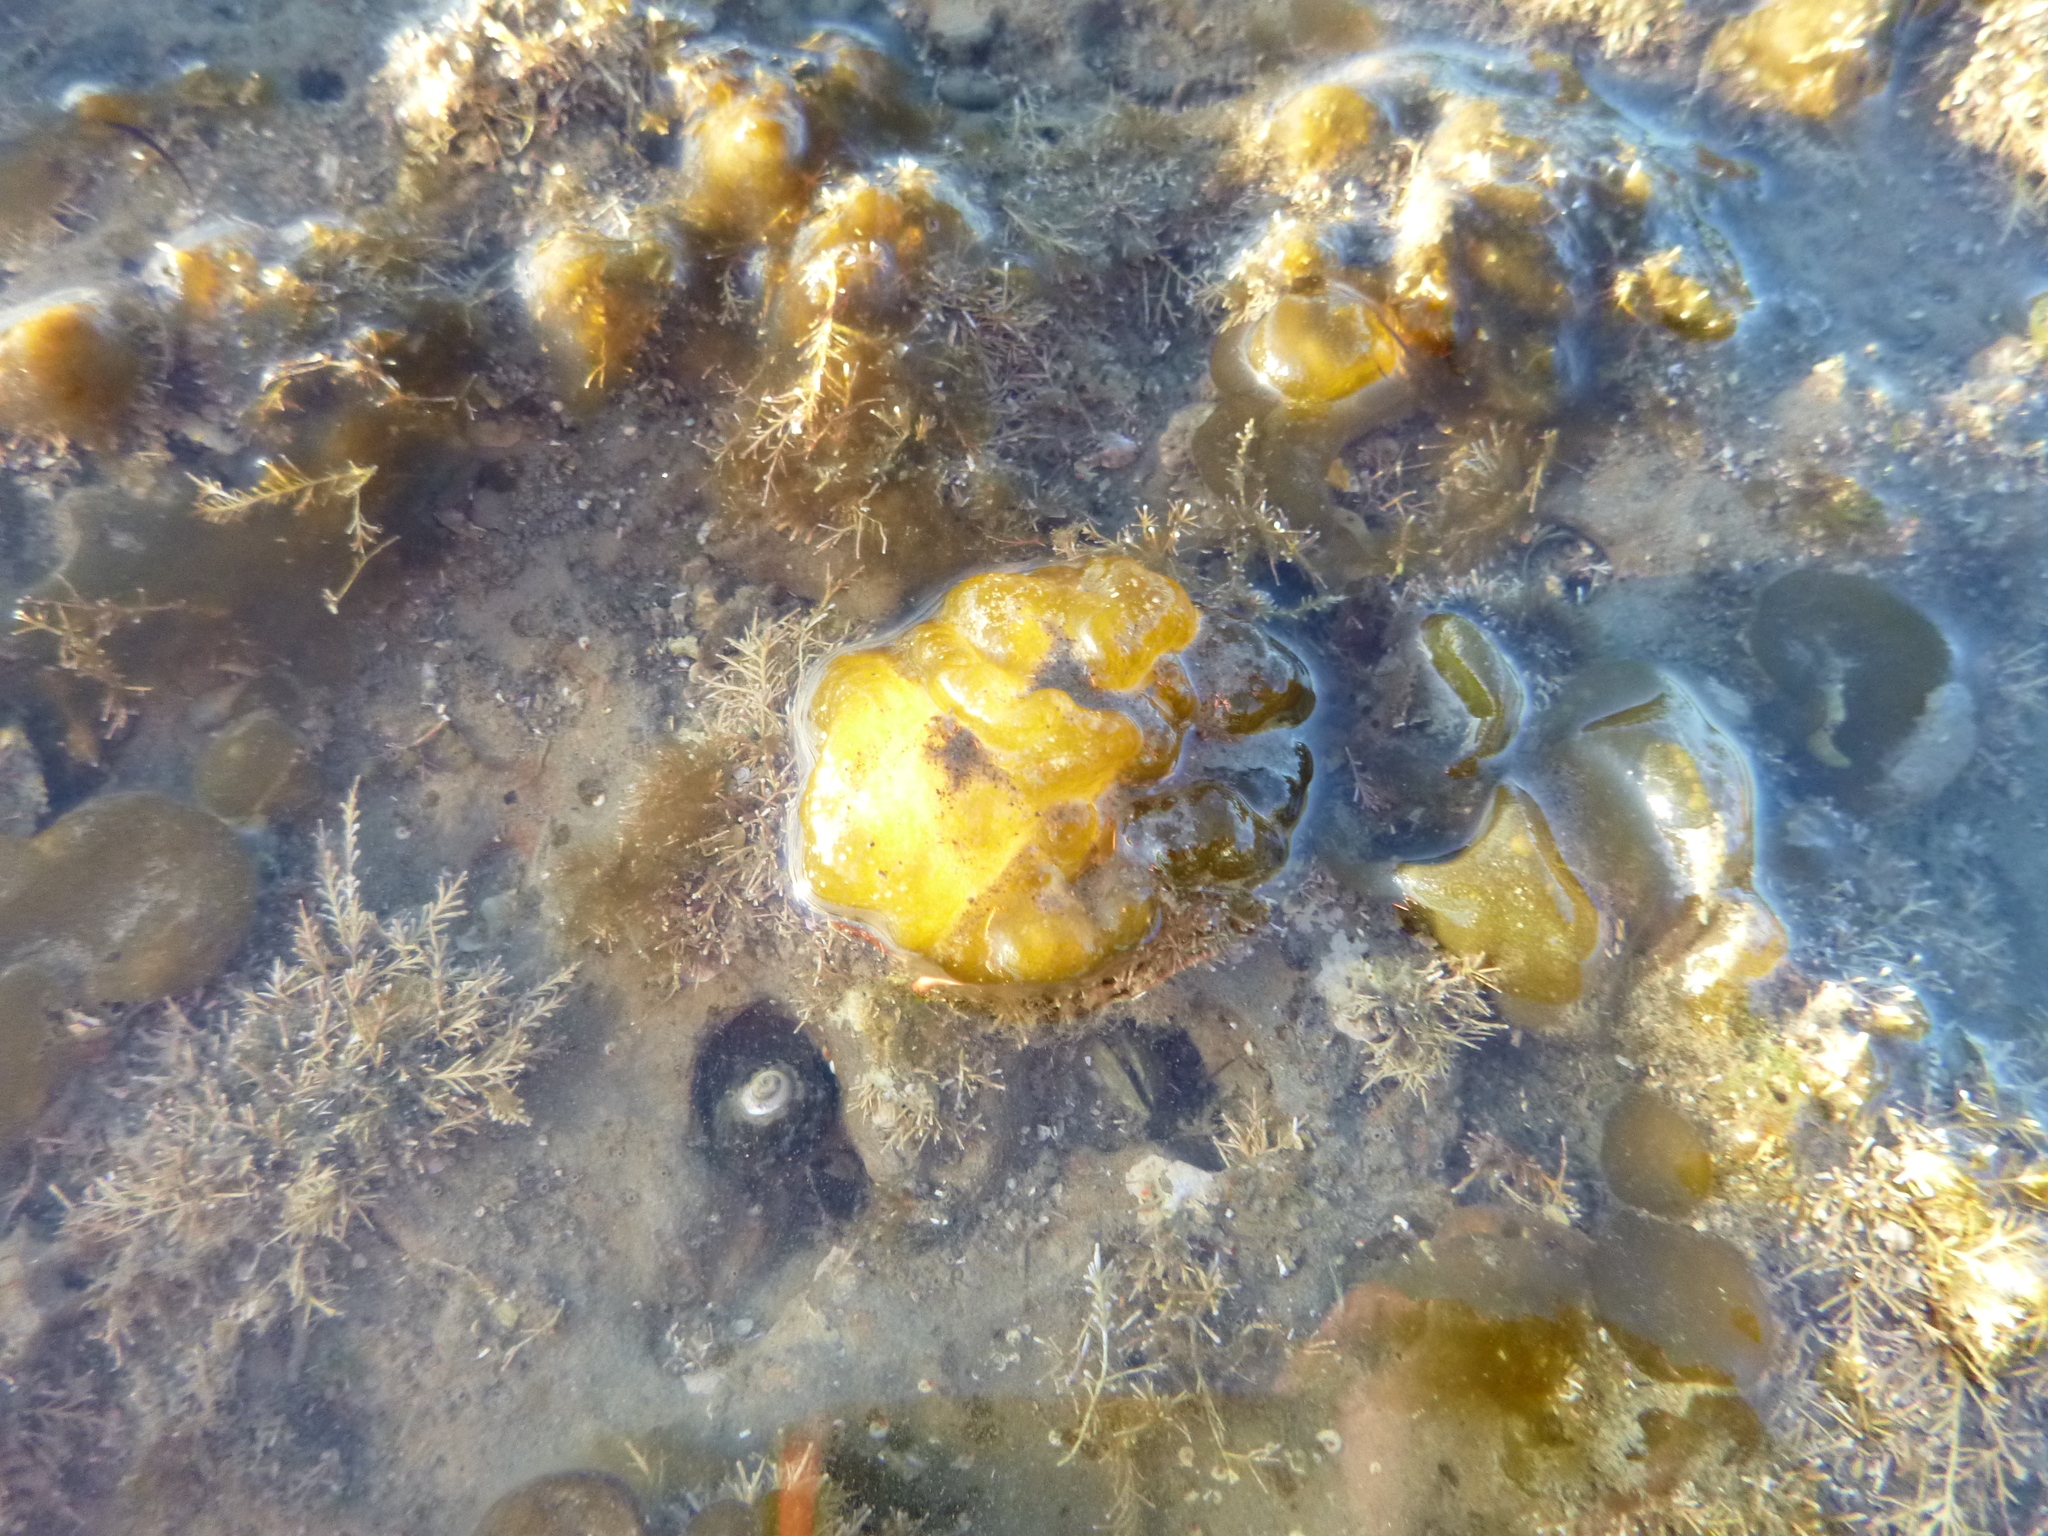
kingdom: Chromista
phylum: Ochrophyta
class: Phaeophyceae
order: Ectocarpales
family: Chordariaceae
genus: Leathesia
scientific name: Leathesia marina
